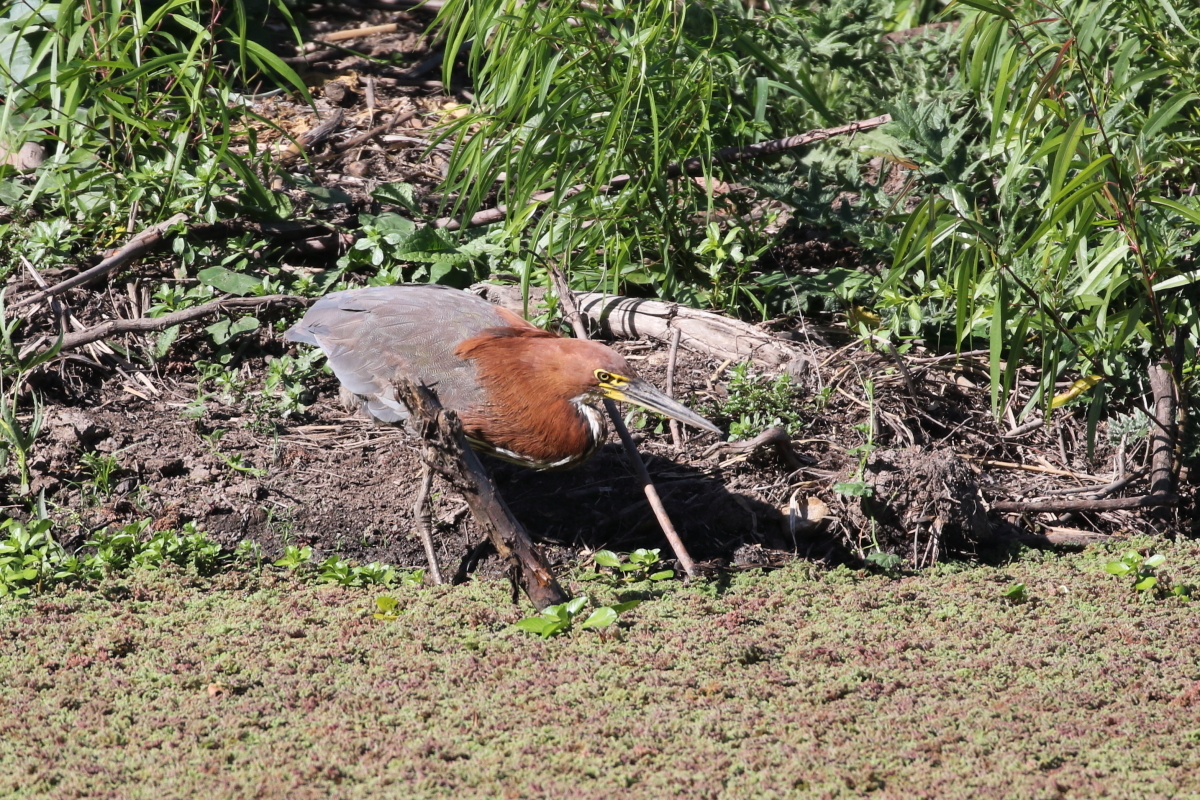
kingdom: Animalia
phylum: Chordata
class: Aves
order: Pelecaniformes
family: Ardeidae
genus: Tigrisoma
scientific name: Tigrisoma lineatum
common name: Rufescent tiger-heron
